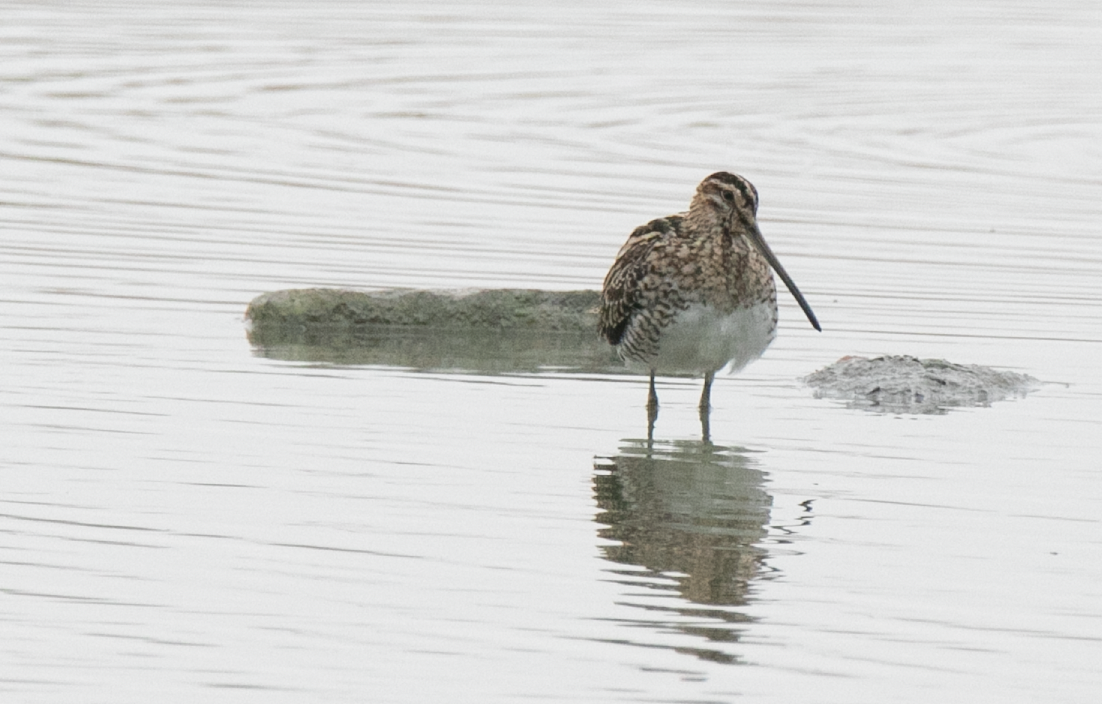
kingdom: Animalia
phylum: Chordata
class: Aves
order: Charadriiformes
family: Scolopacidae
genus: Gallinago
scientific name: Gallinago gallinago
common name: Common snipe
